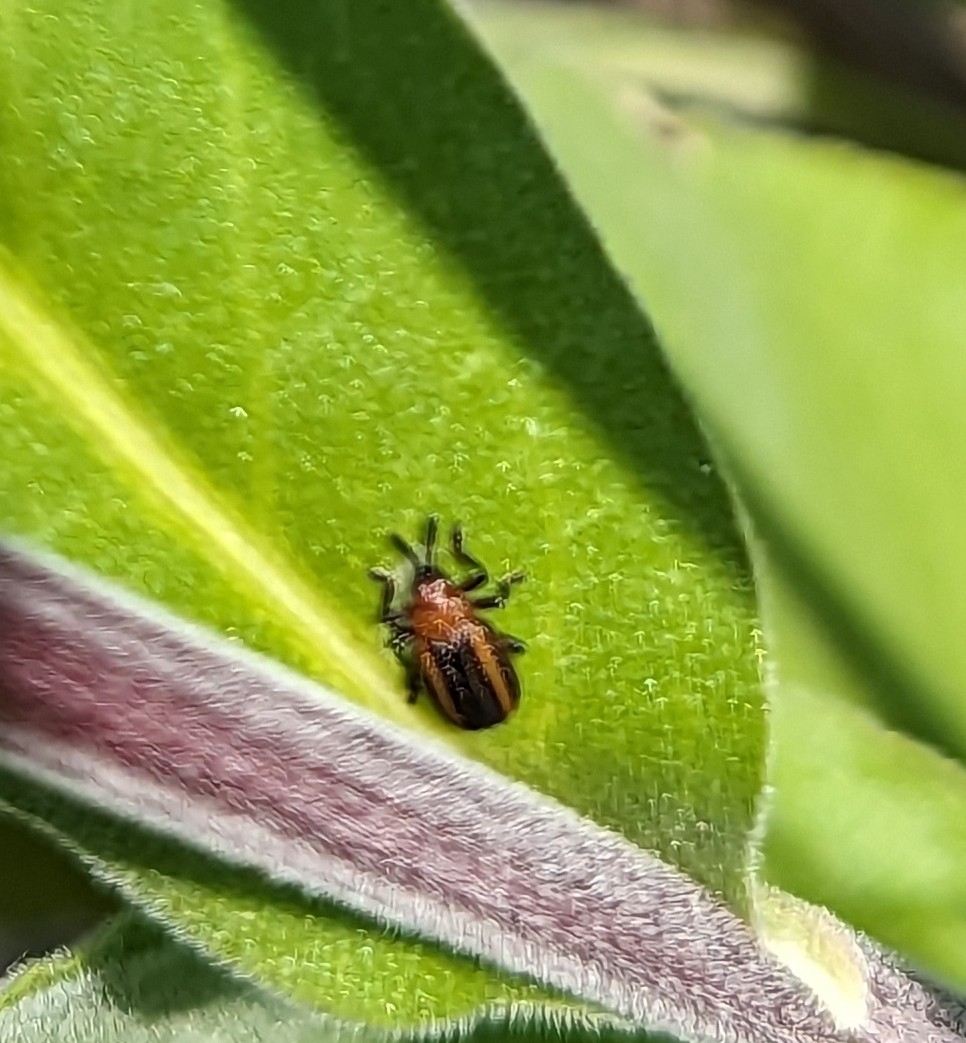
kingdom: Animalia
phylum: Arthropoda
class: Insecta
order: Coleoptera
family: Chrysomelidae
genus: Microrhopala
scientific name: Microrhopala vittata
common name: Goldenrod leaf miner beetle
